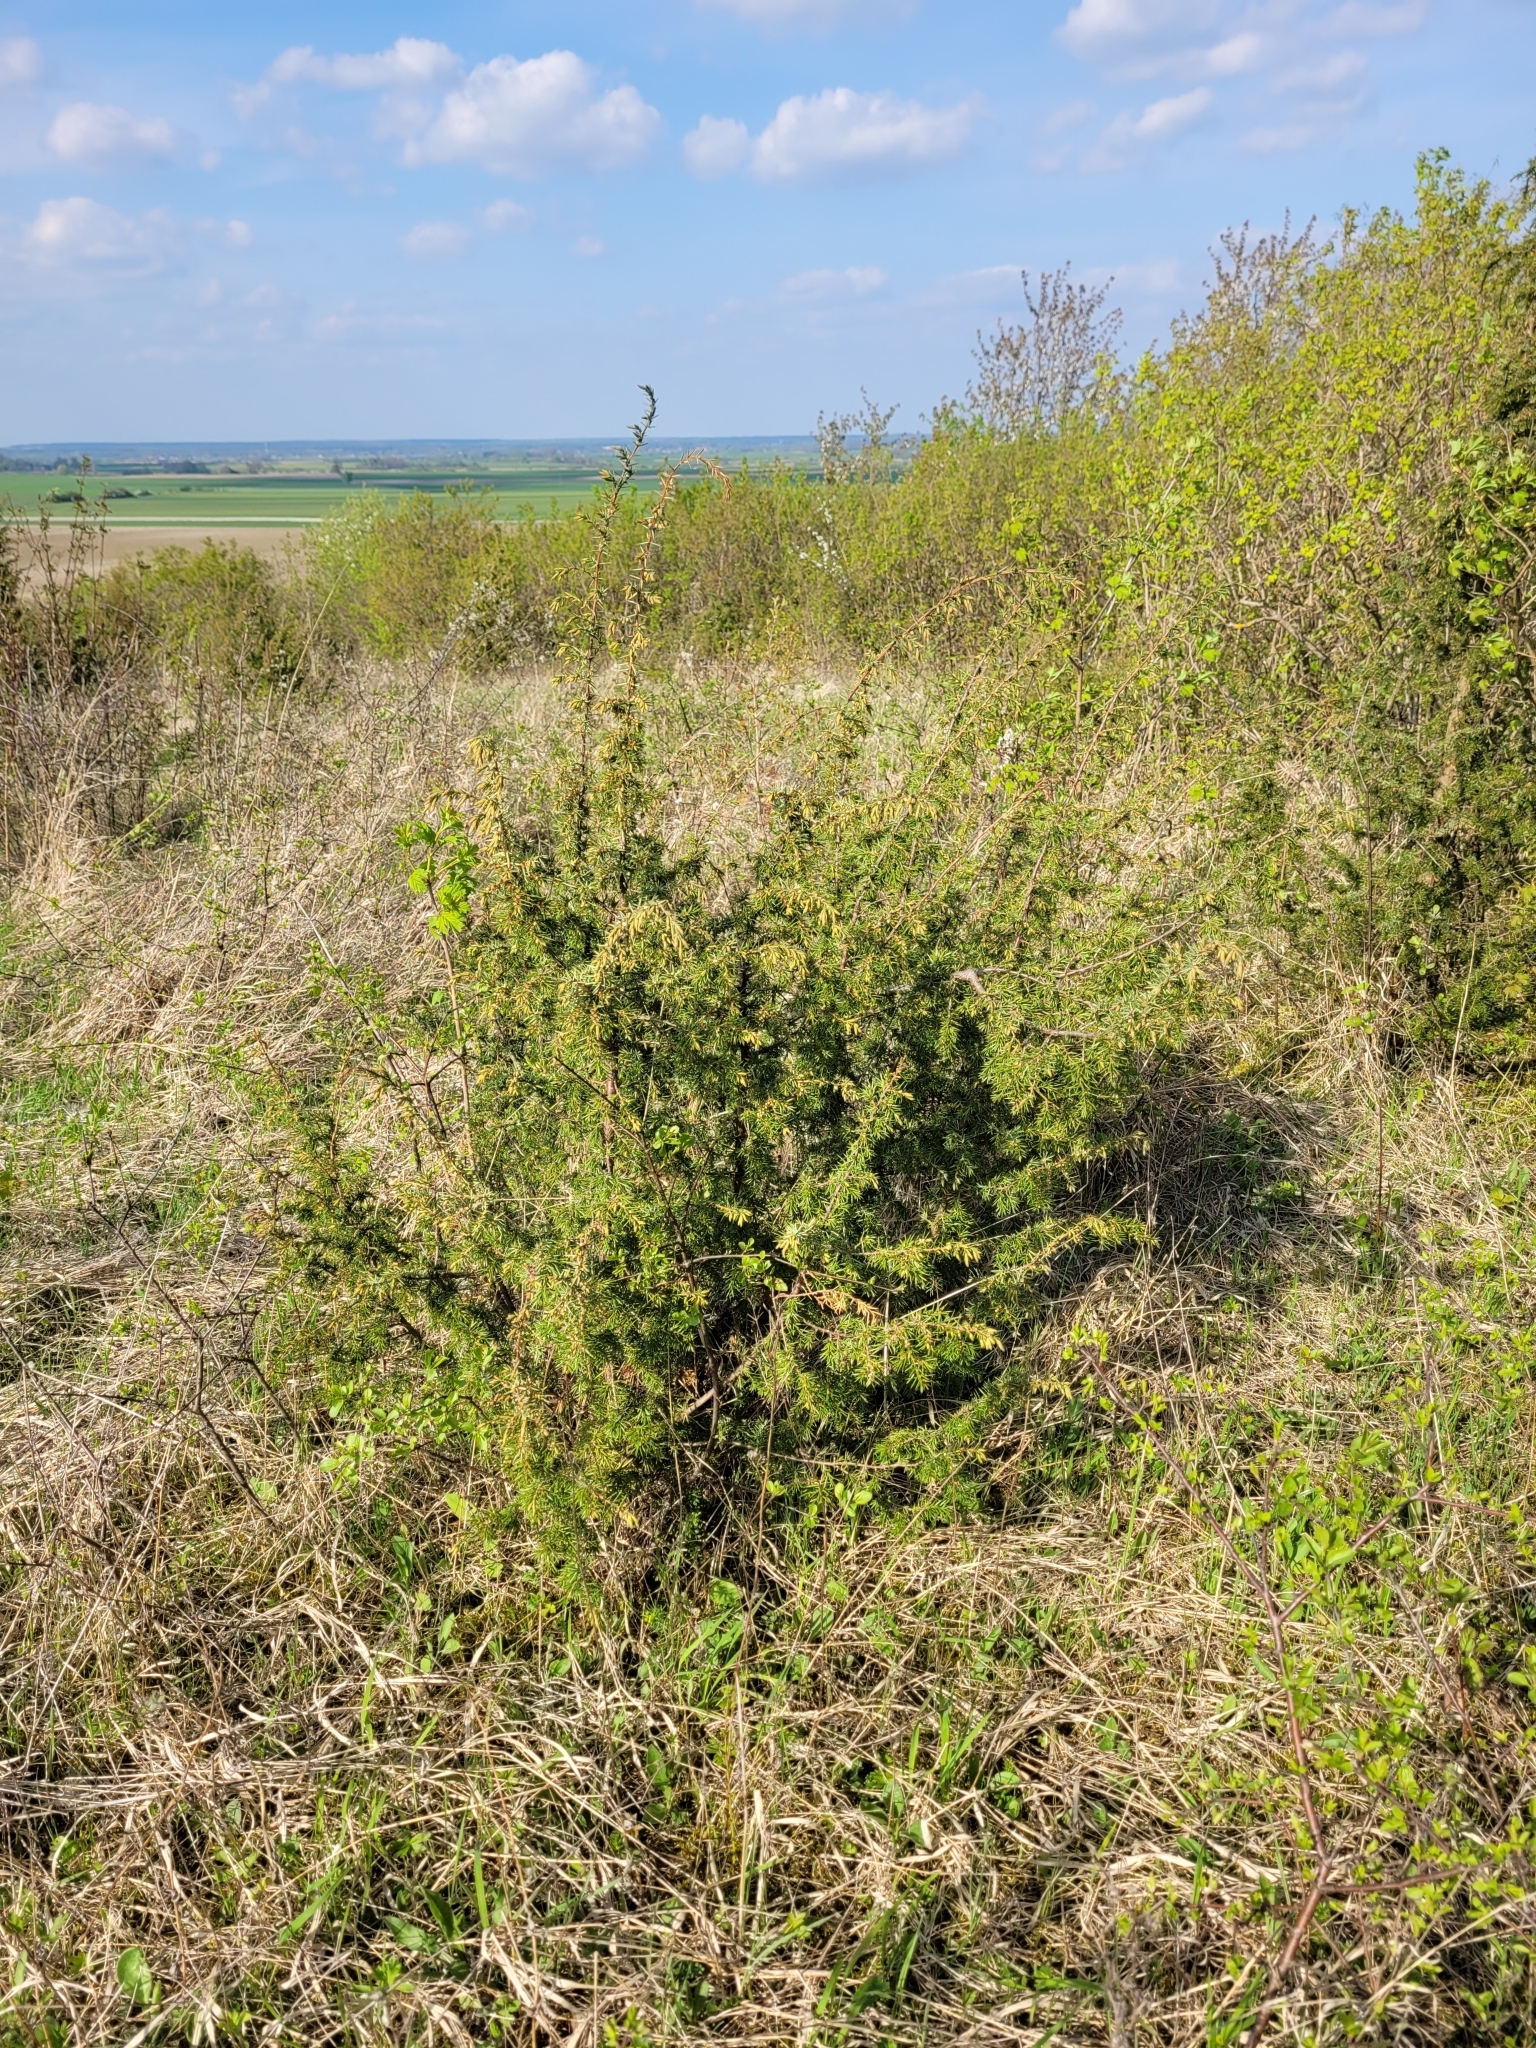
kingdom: Plantae
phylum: Tracheophyta
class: Pinopsida
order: Pinales
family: Cupressaceae
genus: Juniperus
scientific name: Juniperus communis
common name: Common juniper
